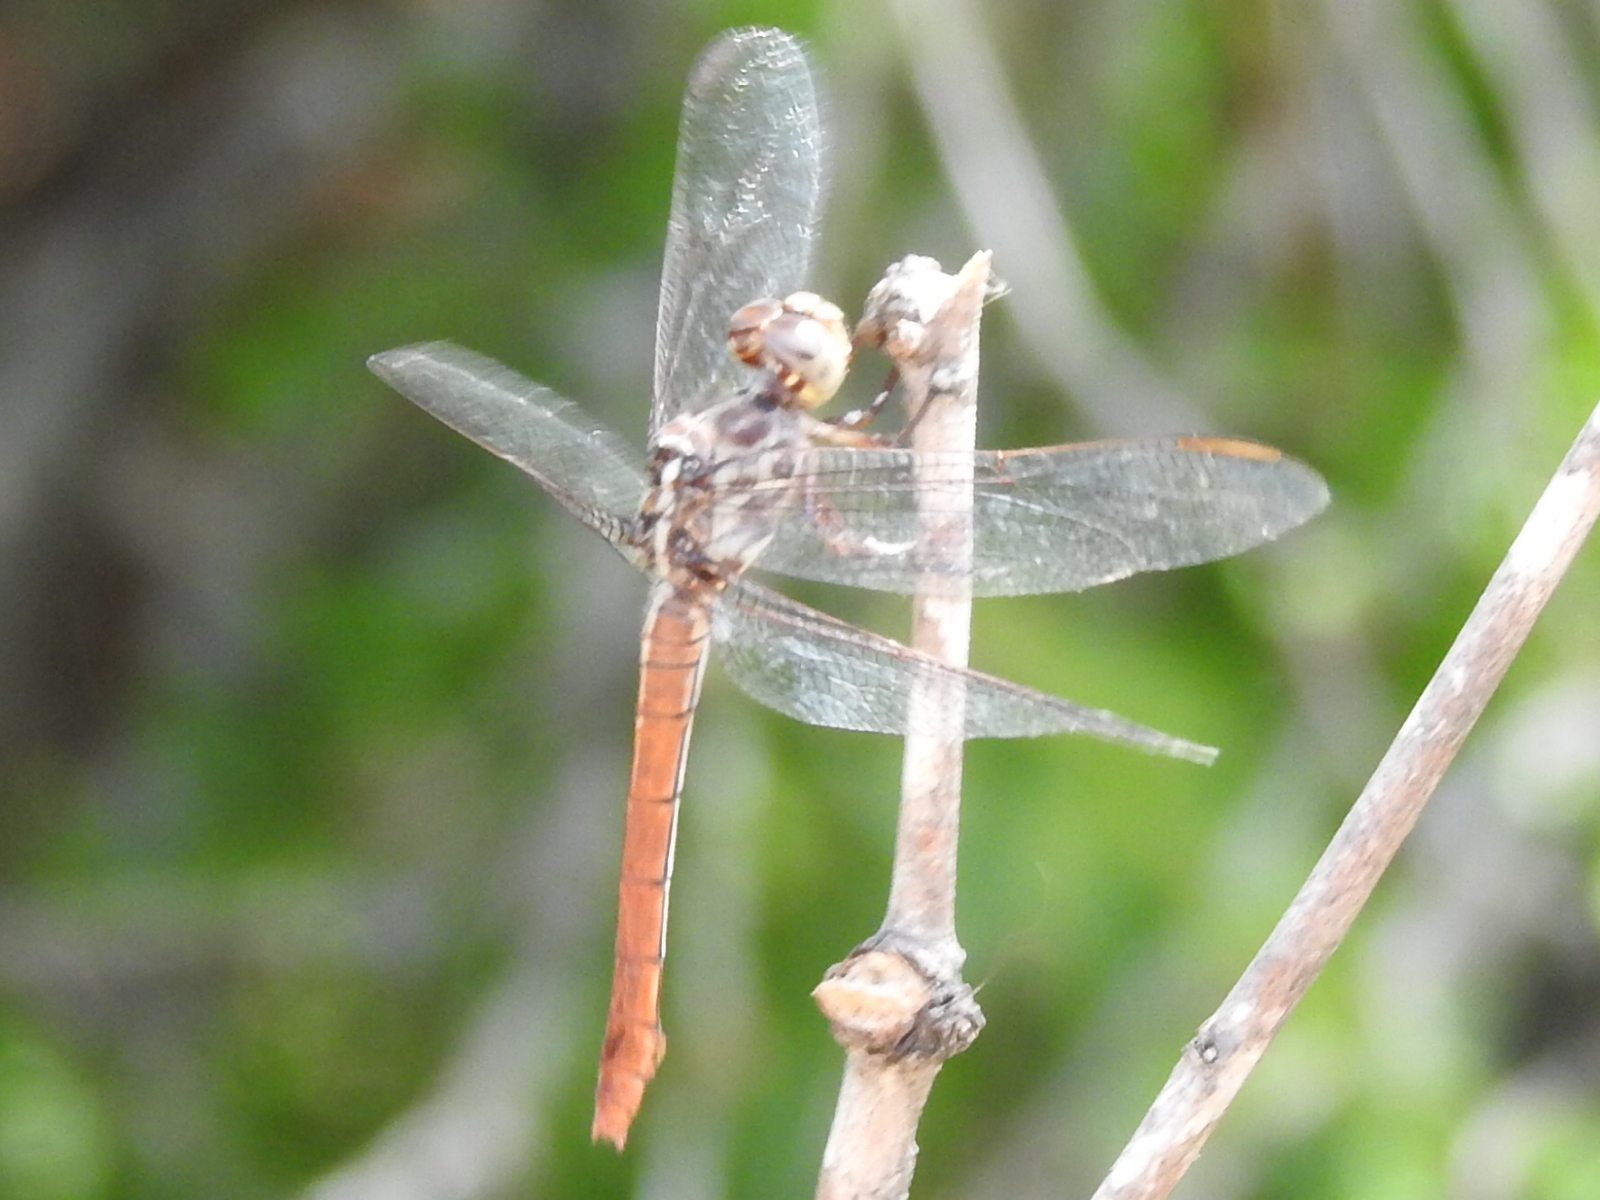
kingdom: Animalia
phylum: Arthropoda
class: Insecta
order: Odonata
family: Libellulidae
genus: Orthemis
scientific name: Orthemis ferruginea
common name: Roseate skimmer
